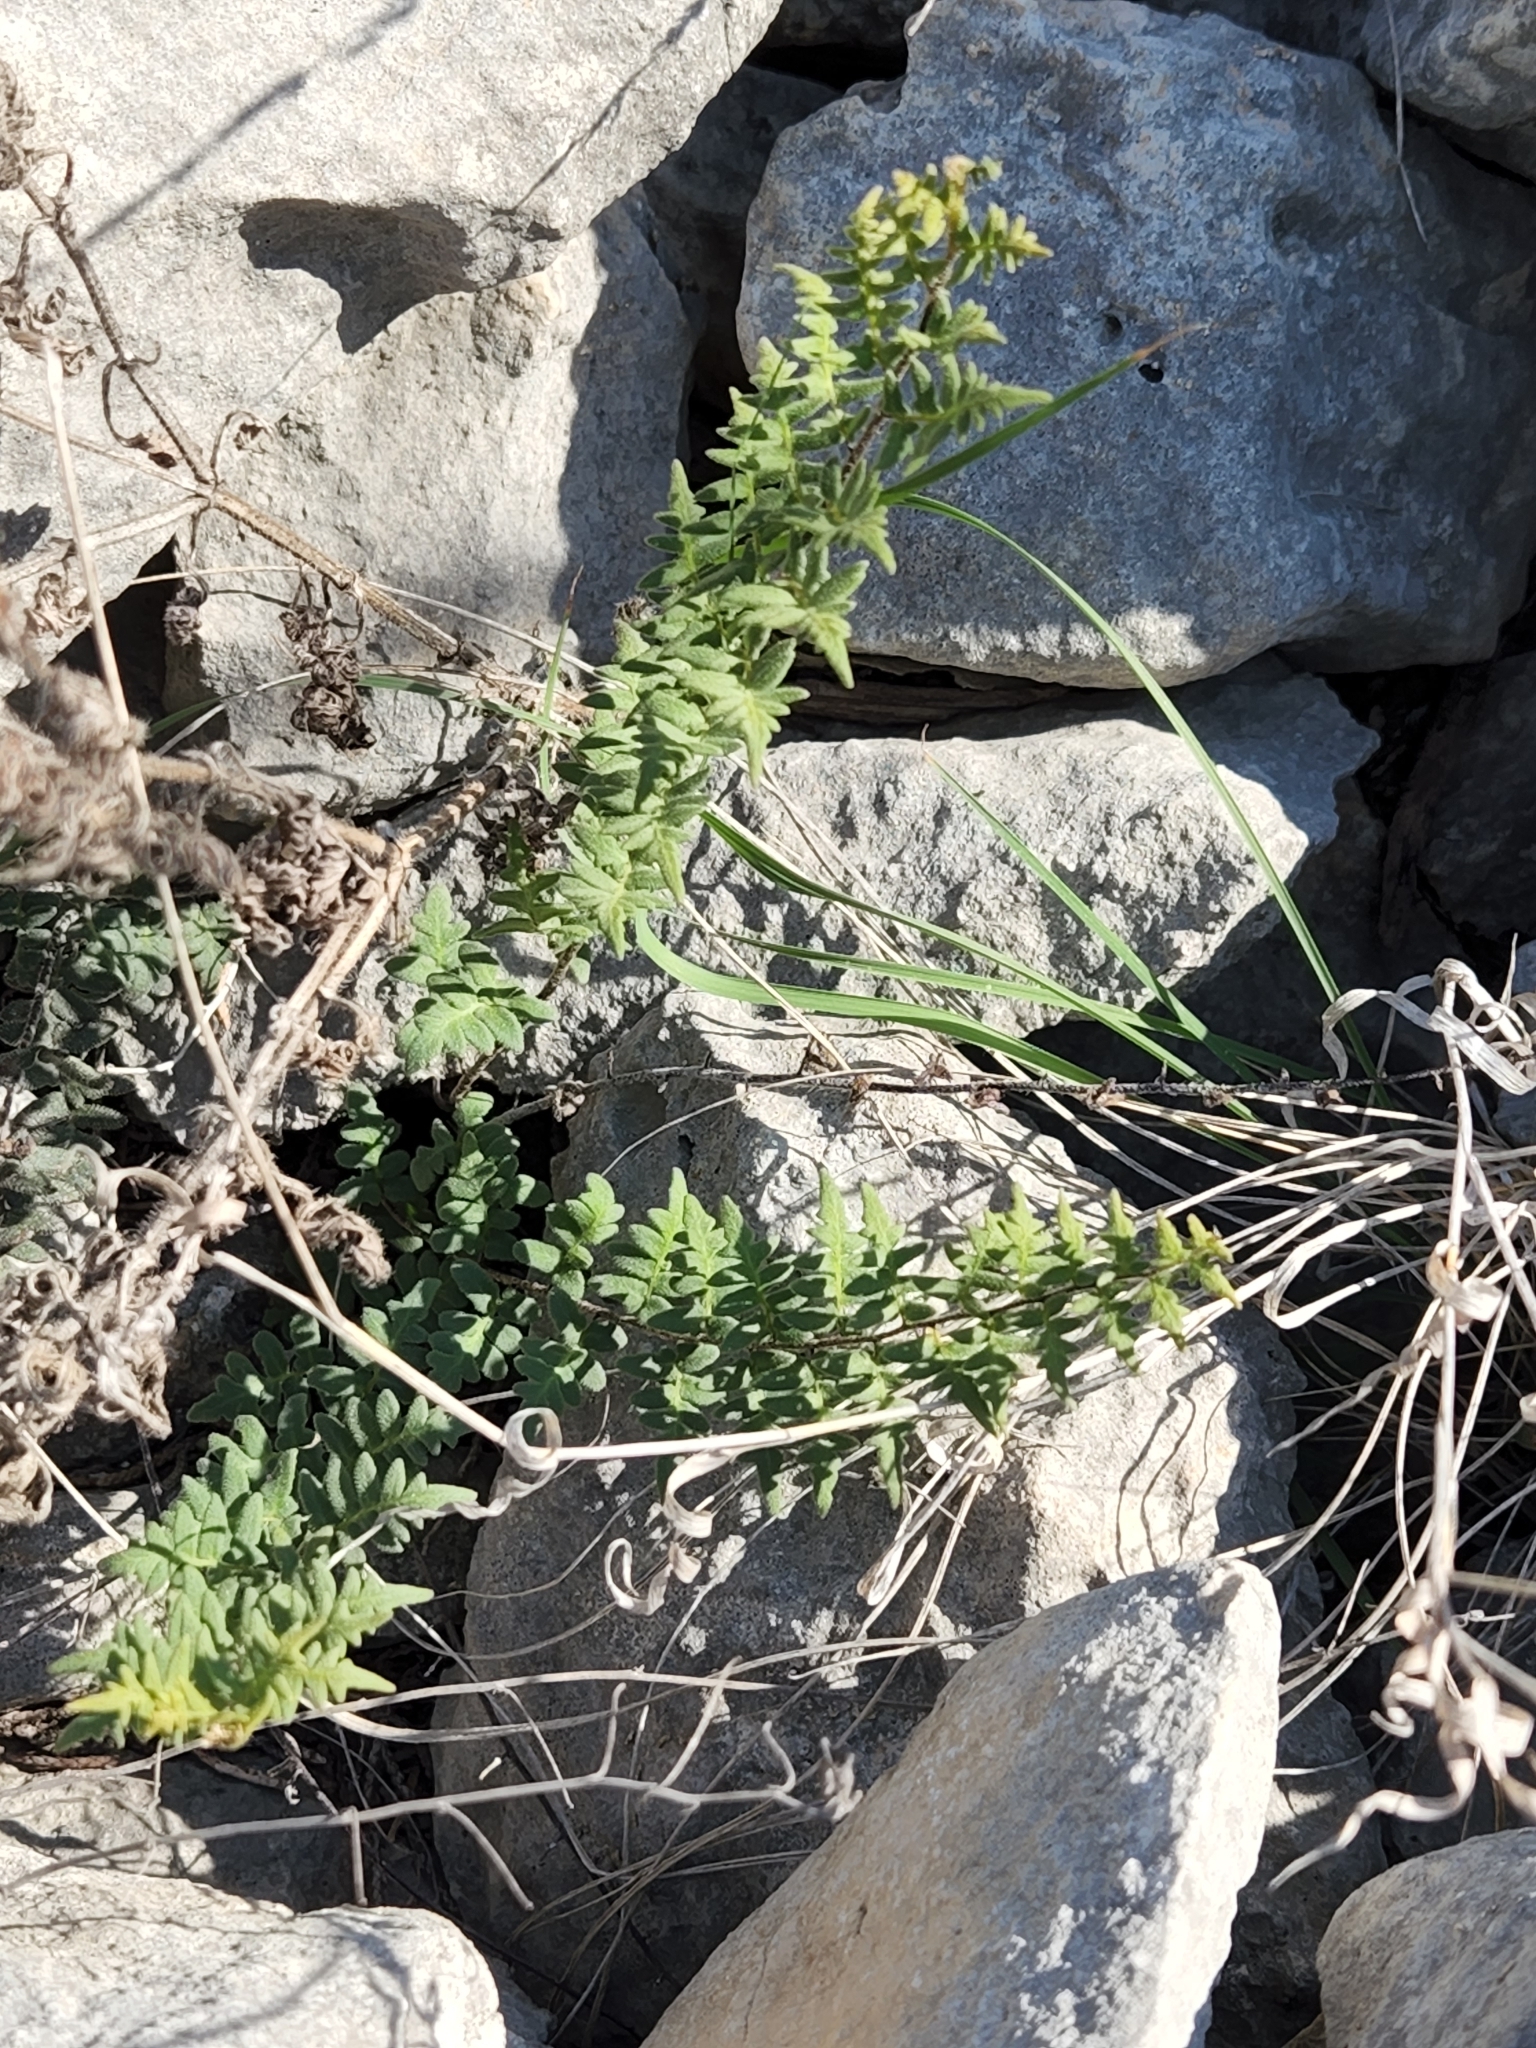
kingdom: Plantae
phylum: Tracheophyta
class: Polypodiopsida
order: Polypodiales
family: Pteridaceae
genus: Myriopteris
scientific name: Myriopteris scabra
